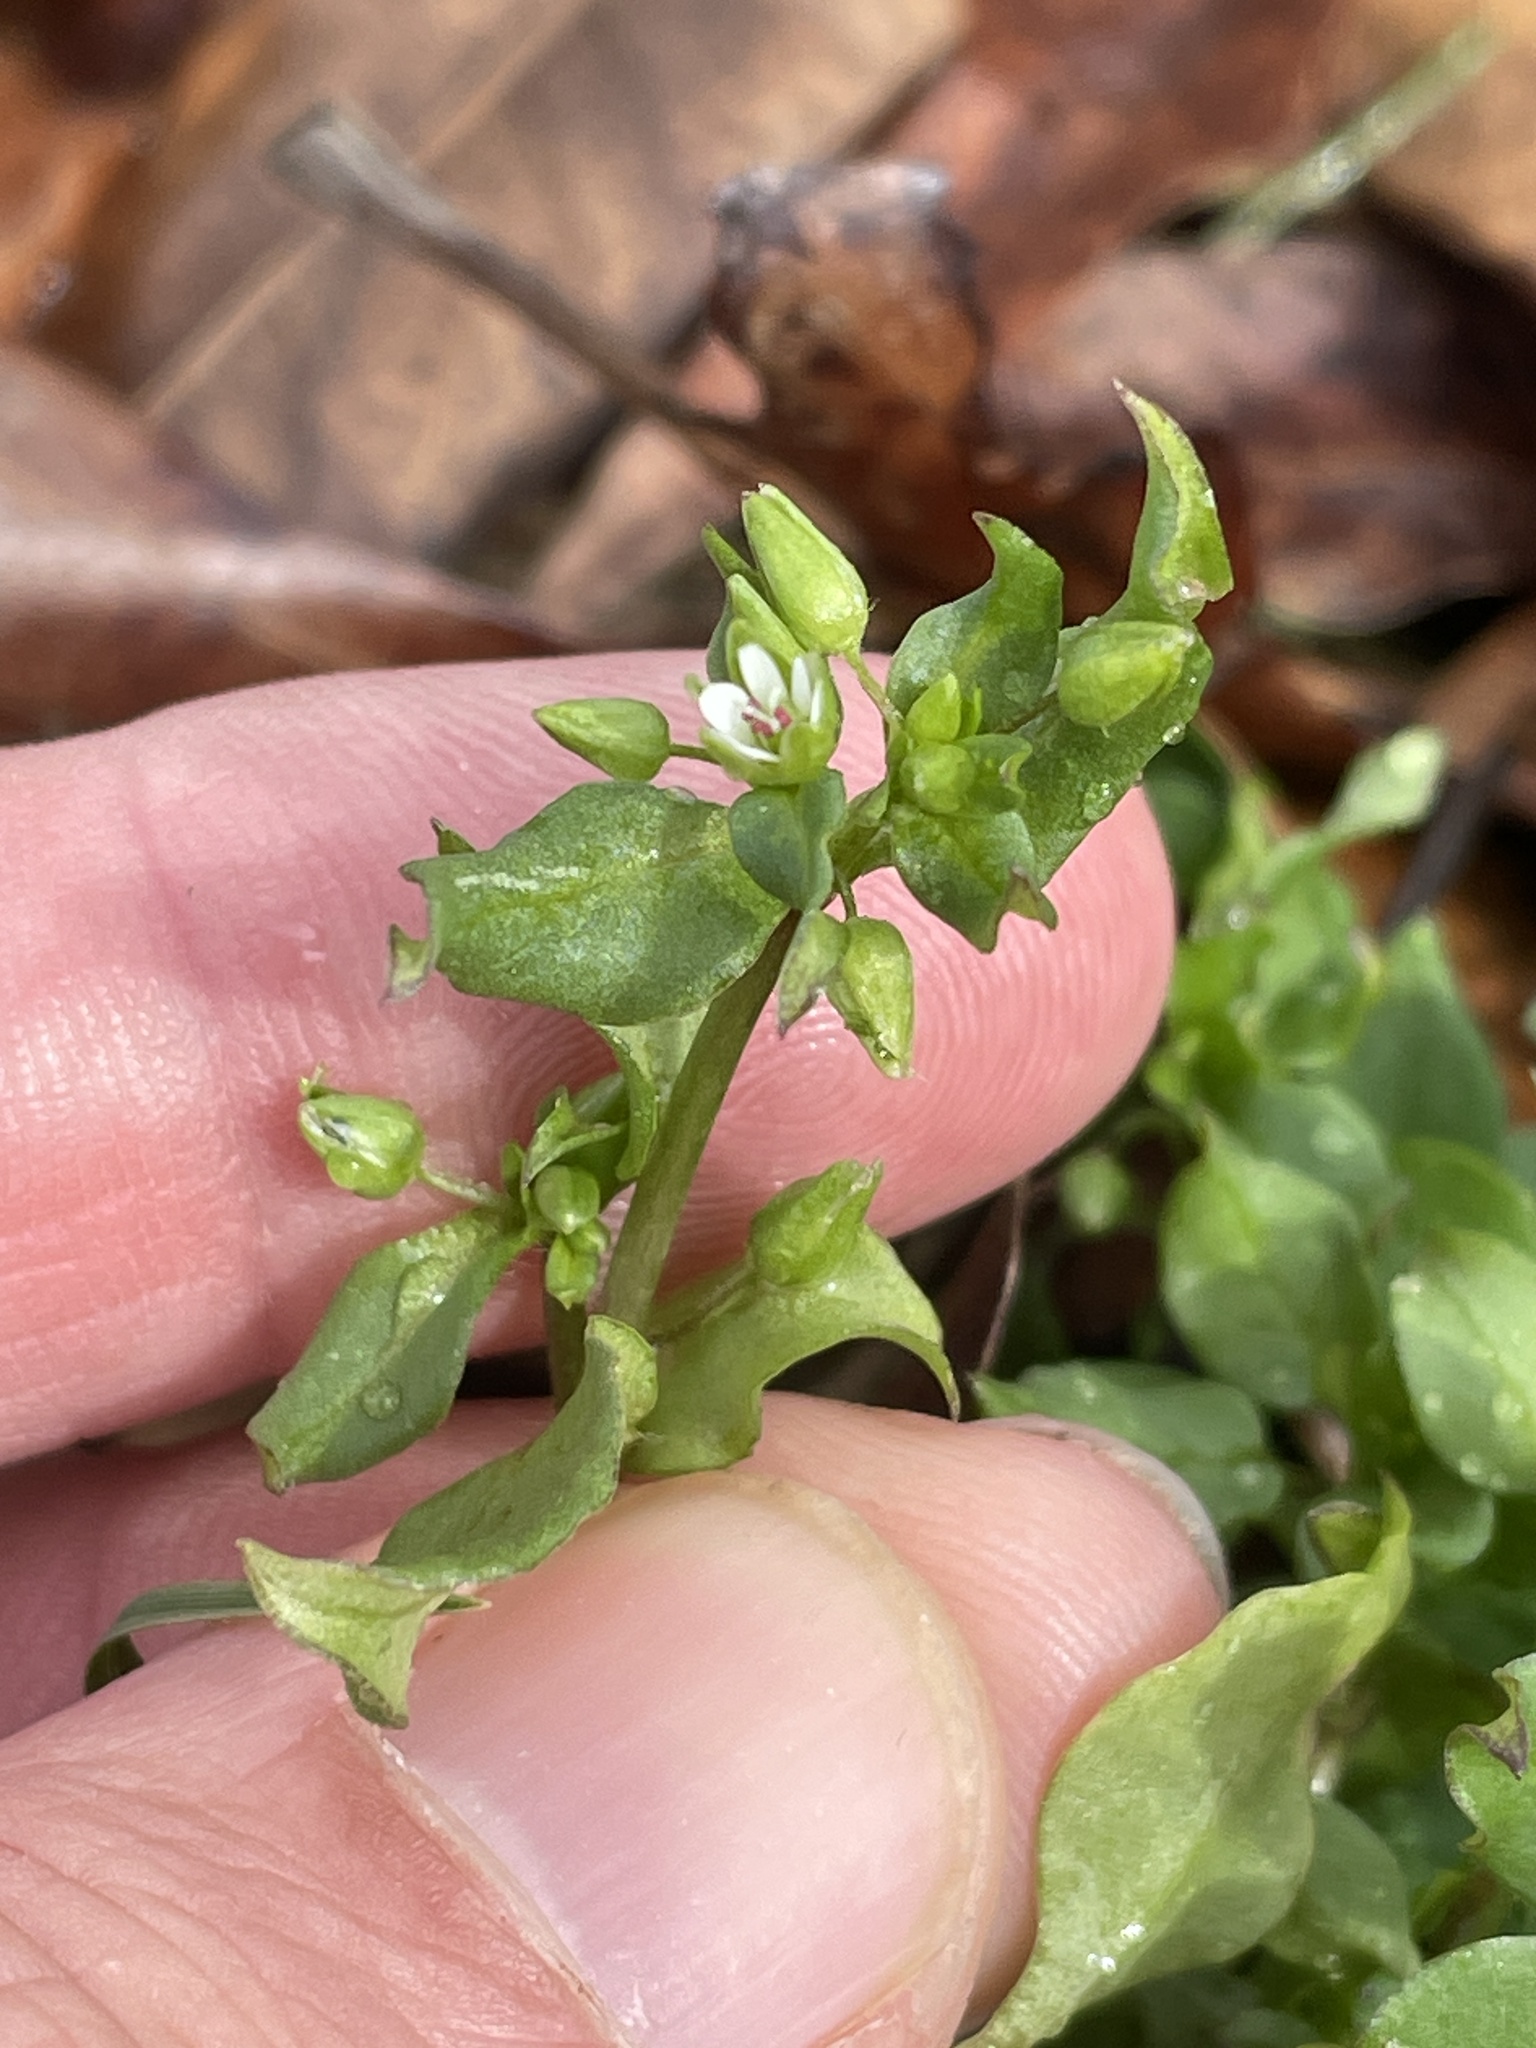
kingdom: Plantae
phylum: Tracheophyta
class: Magnoliopsida
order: Caryophyllales
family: Caryophyllaceae
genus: Stellaria
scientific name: Stellaria media
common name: Common chickweed
